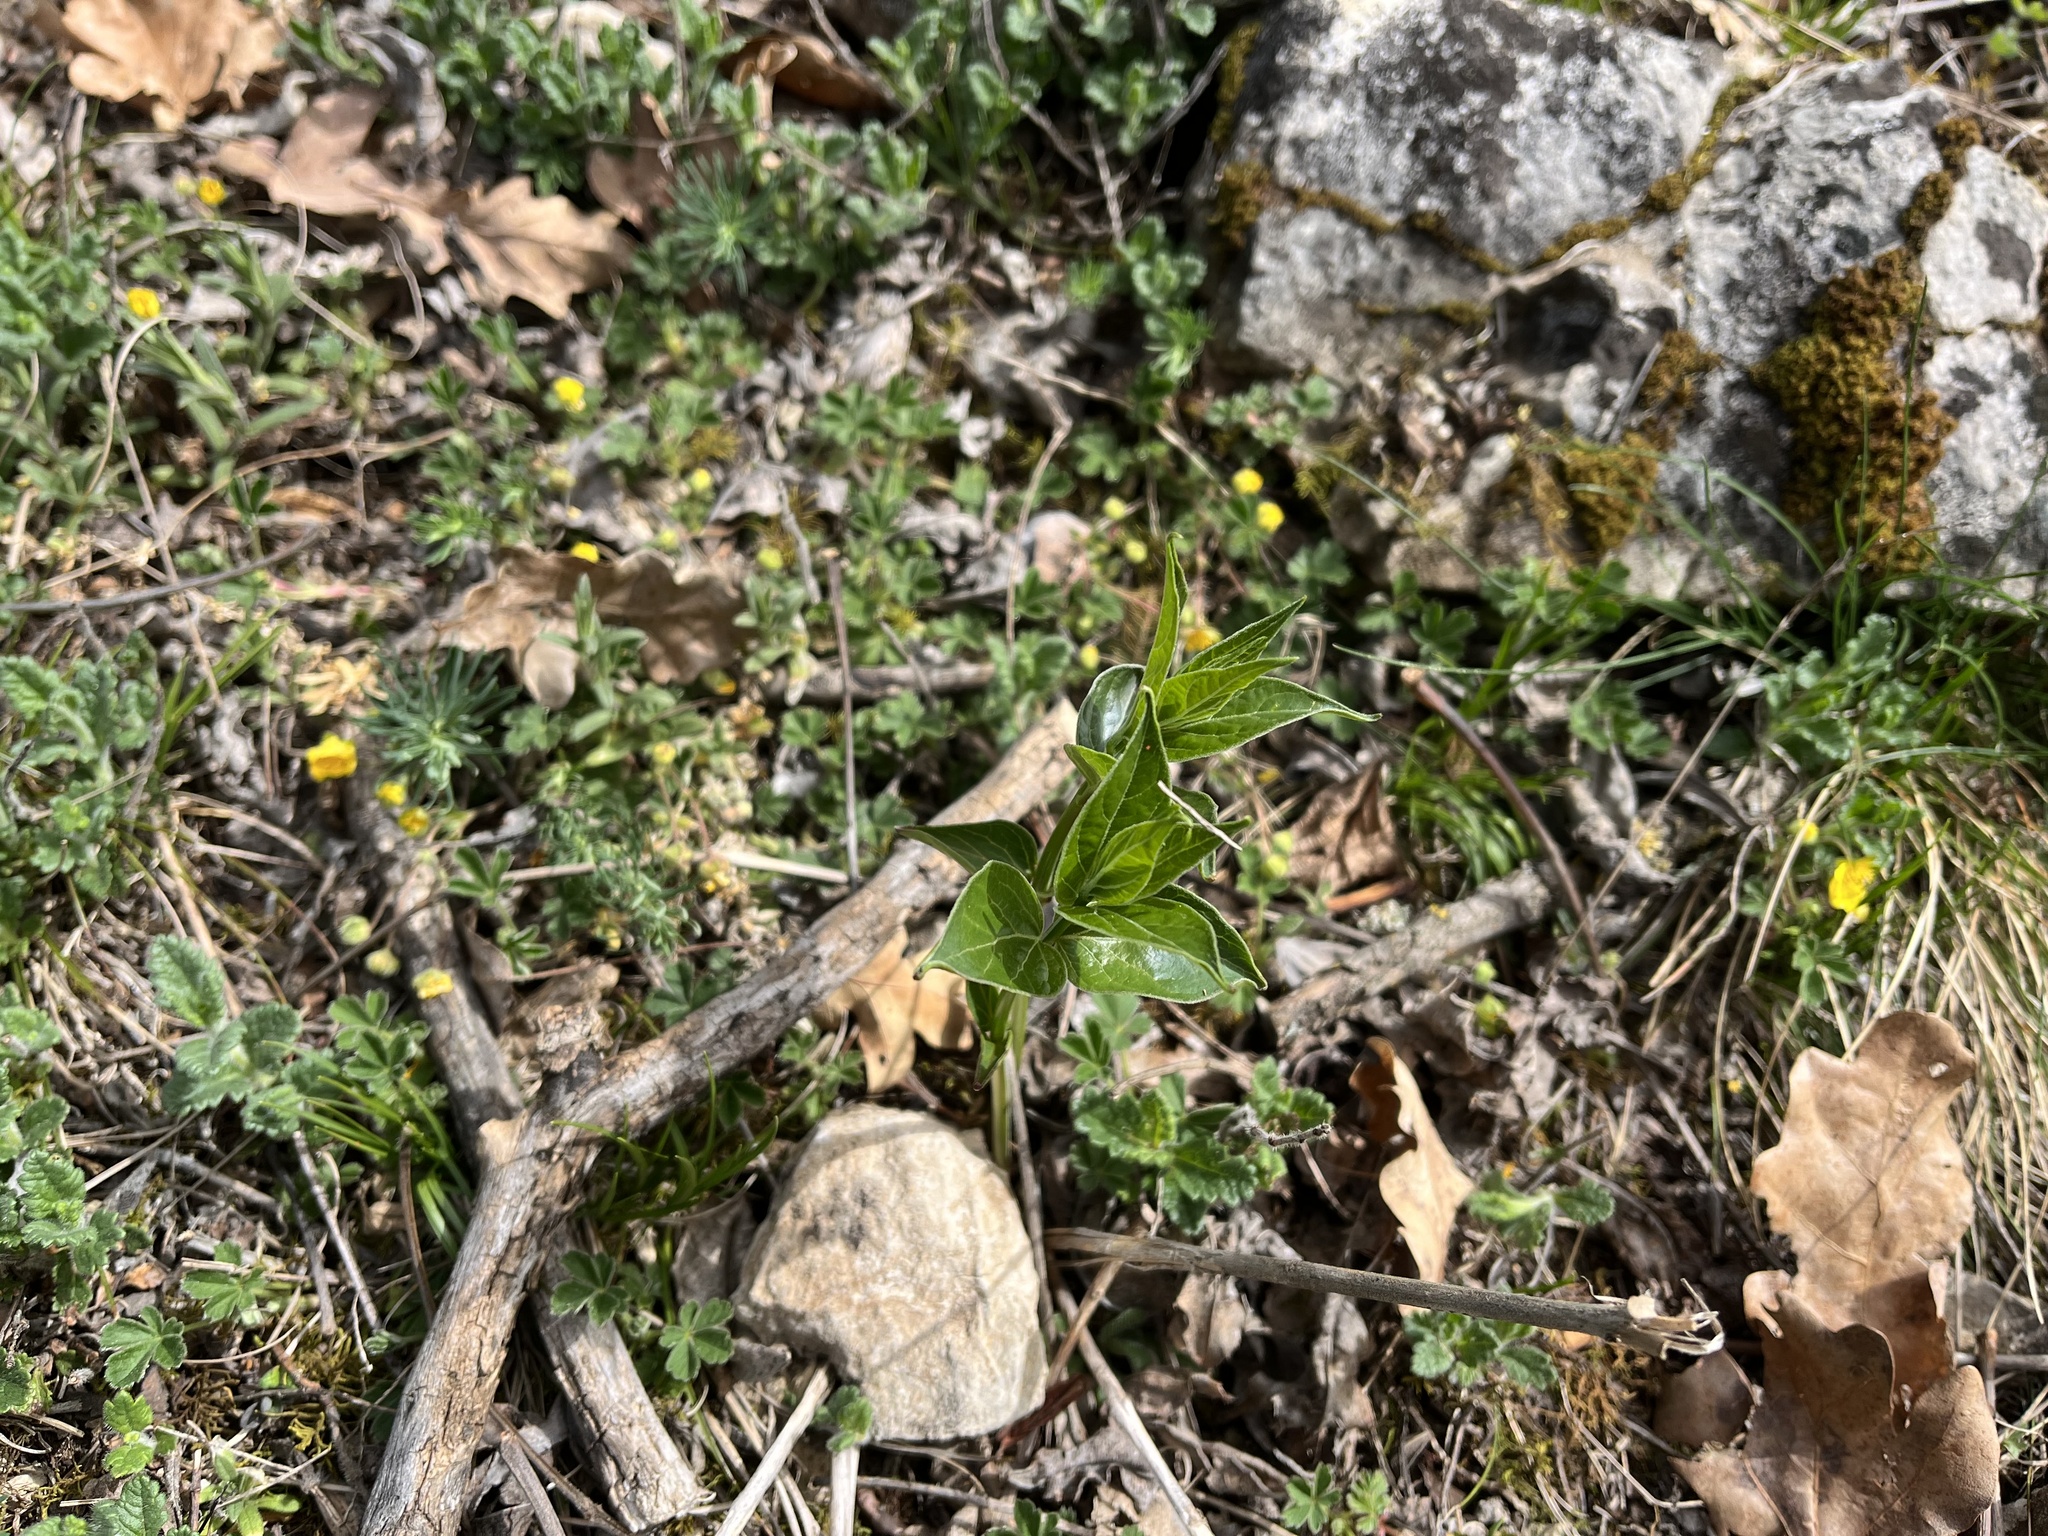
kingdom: Plantae
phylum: Tracheophyta
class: Magnoliopsida
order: Gentianales
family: Apocynaceae
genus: Vincetoxicum
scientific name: Vincetoxicum hirundinaria
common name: White swallowwort
